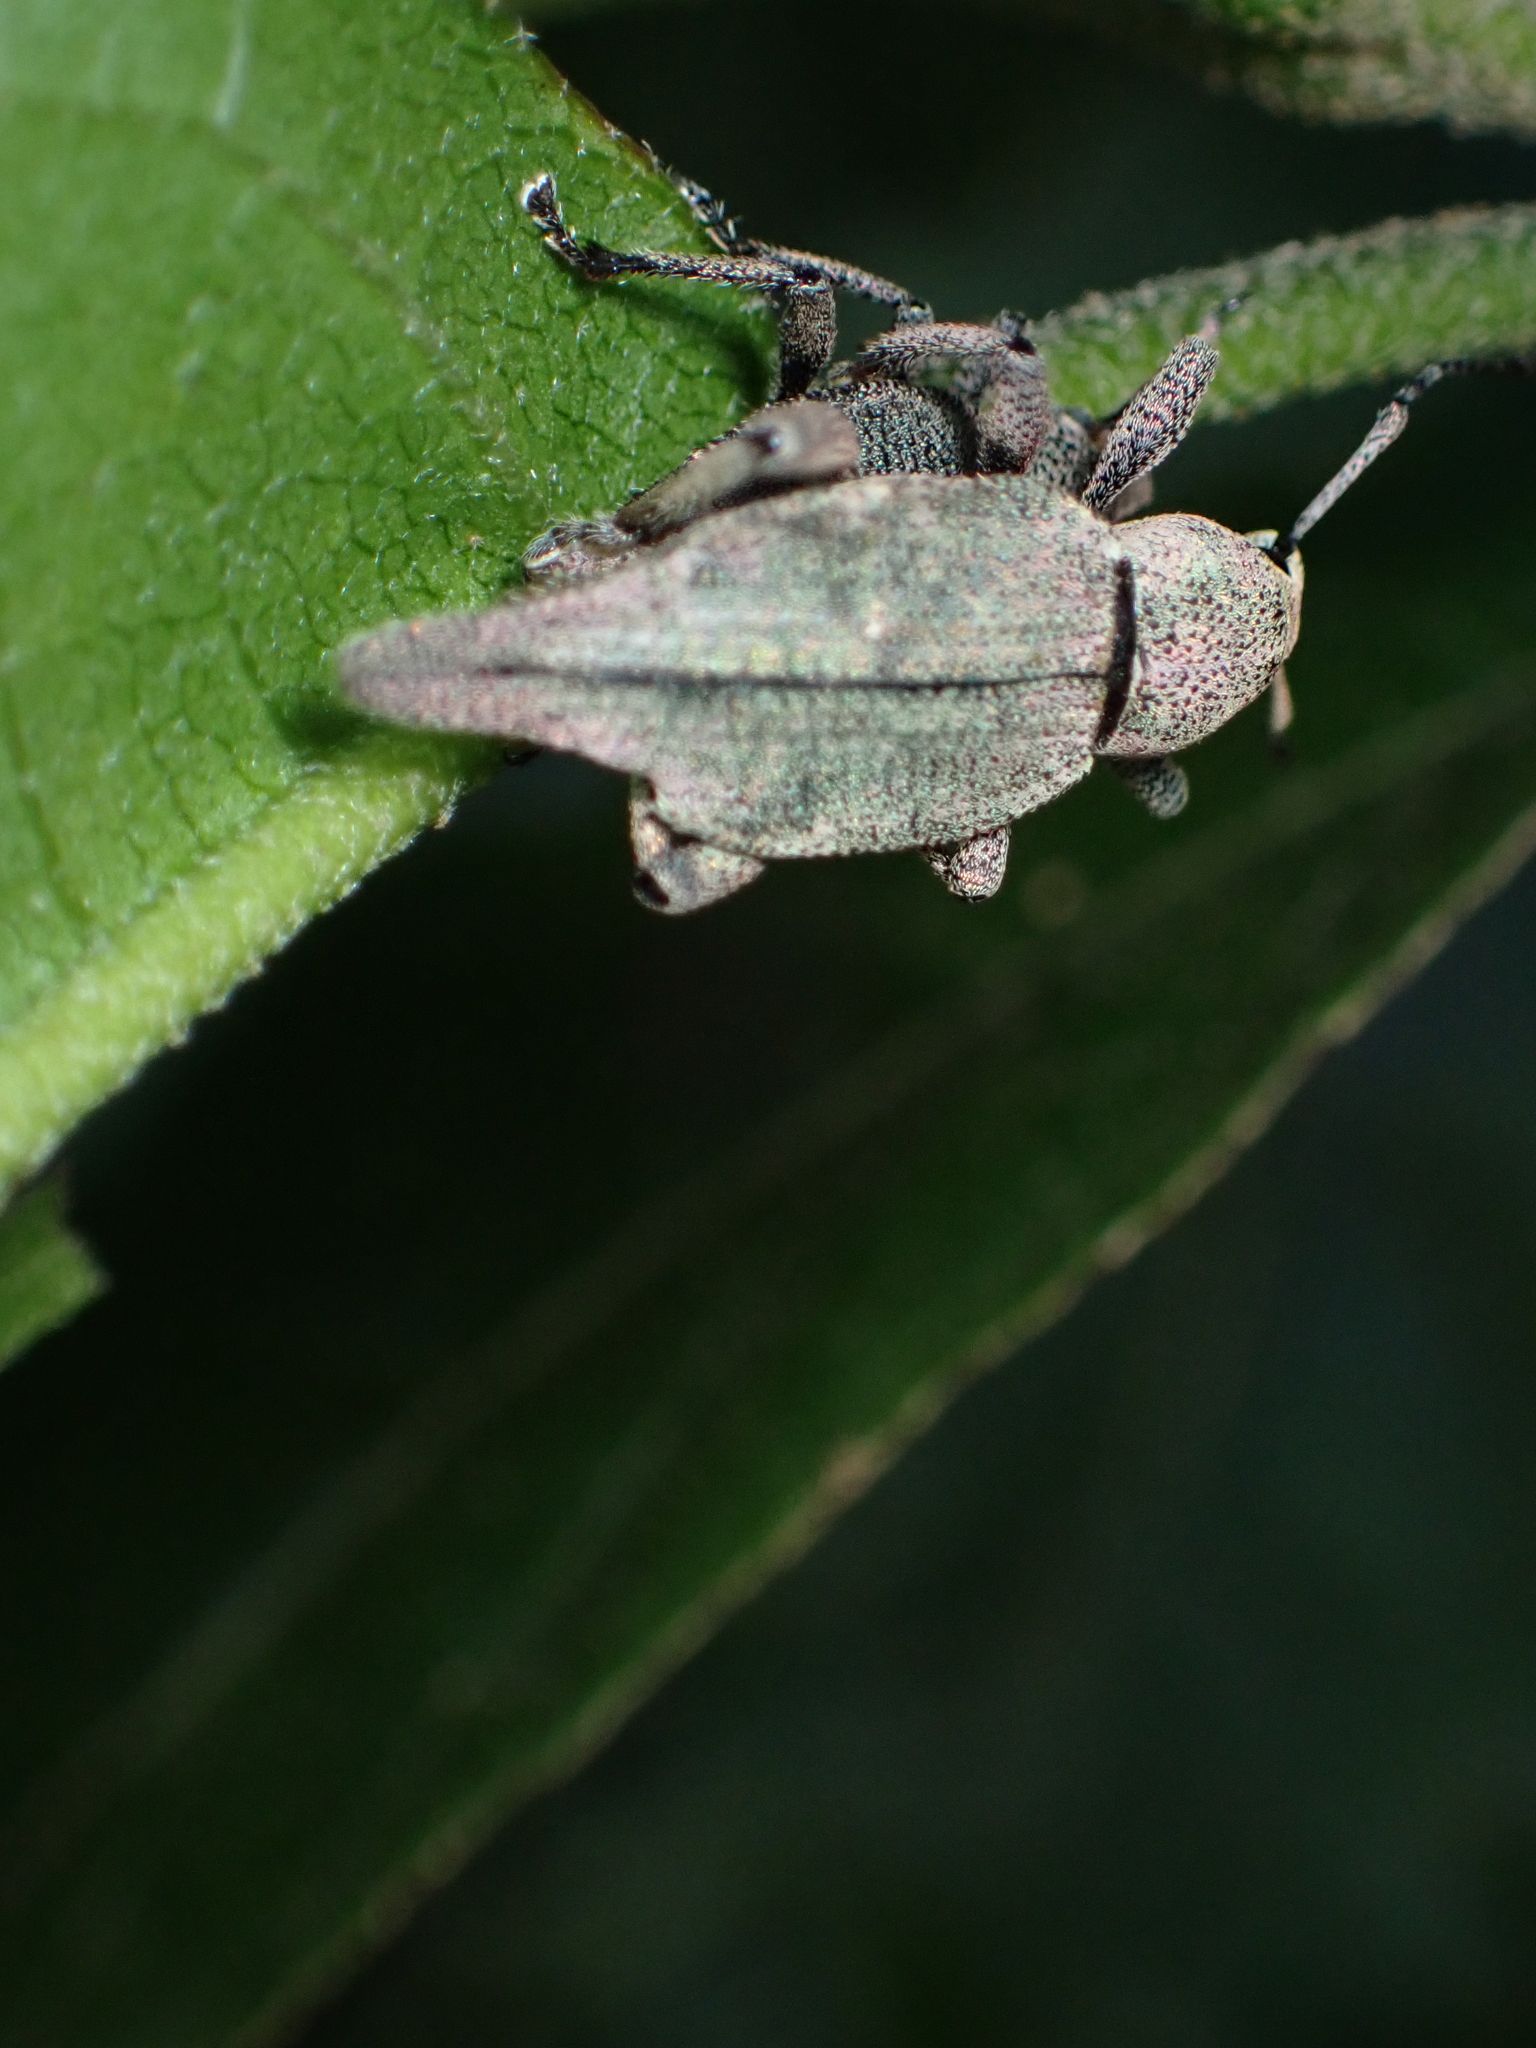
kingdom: Animalia
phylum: Arthropoda
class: Insecta
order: Coleoptera
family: Curculionidae
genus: Elytrurus
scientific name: Elytrurus caudatus
